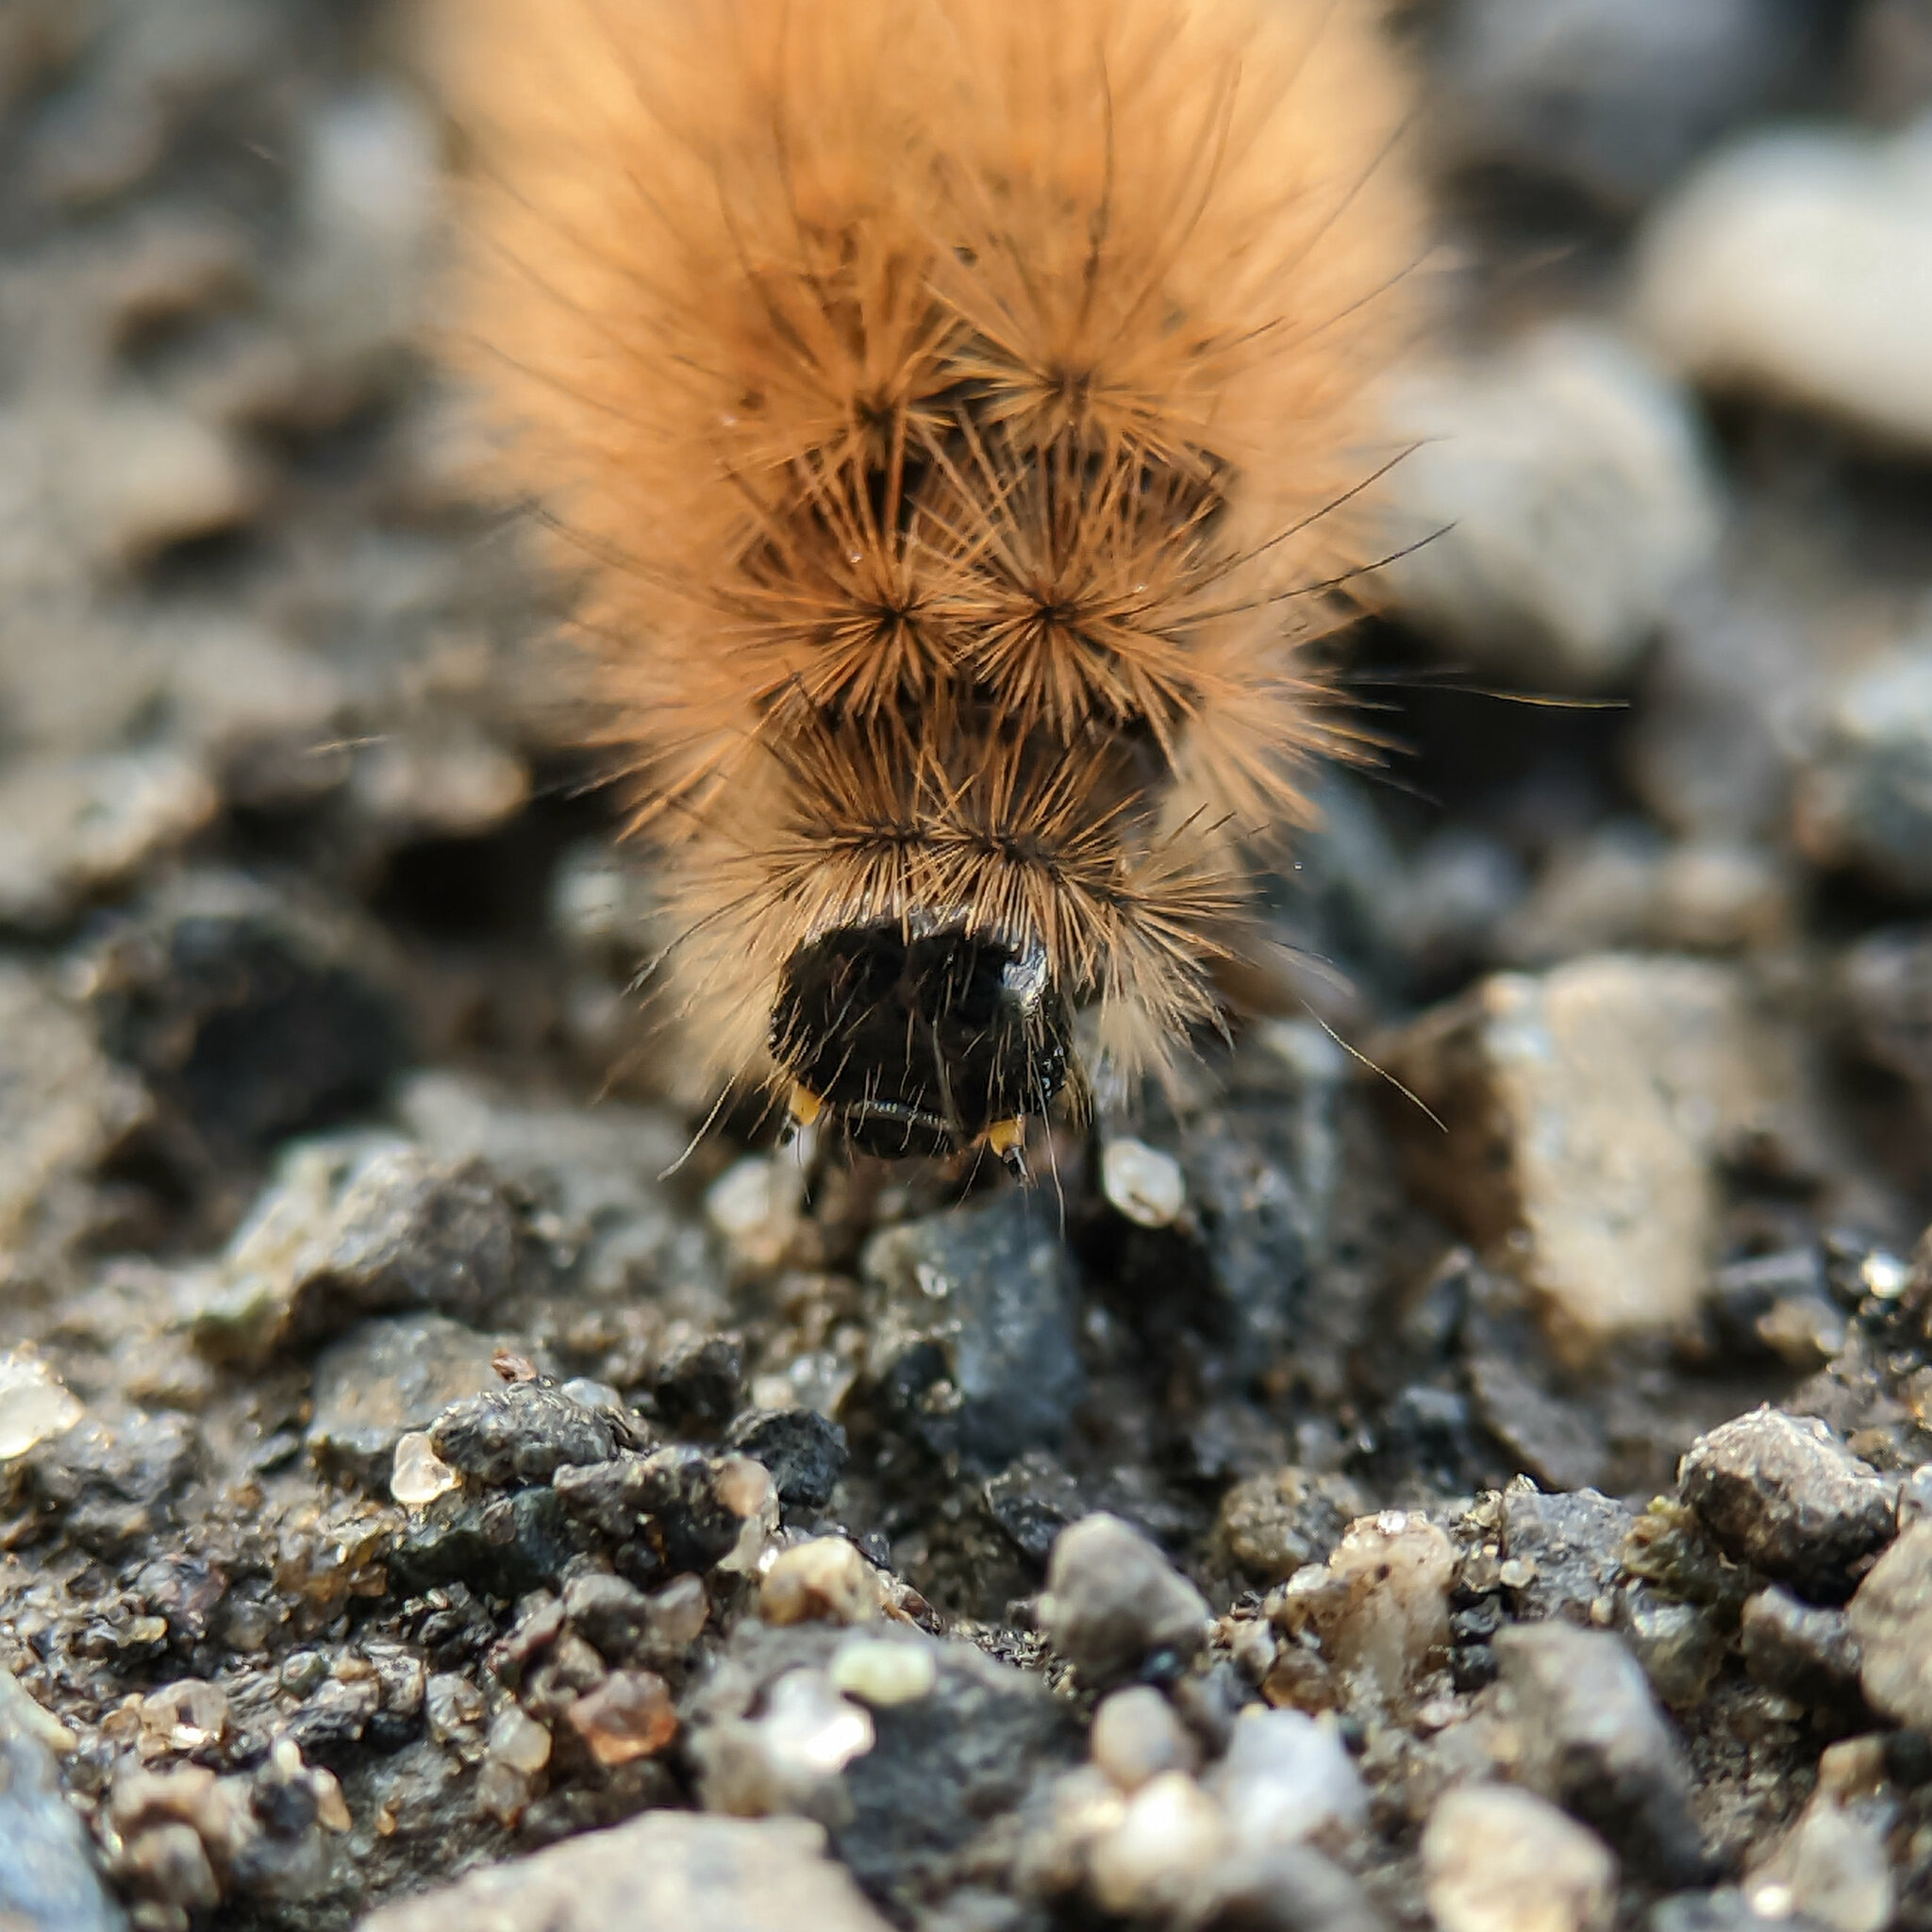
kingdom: Animalia
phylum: Arthropoda
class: Insecta
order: Lepidoptera
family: Erebidae
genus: Phragmatobia
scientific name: Phragmatobia fuliginosa
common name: Ruby tiger
